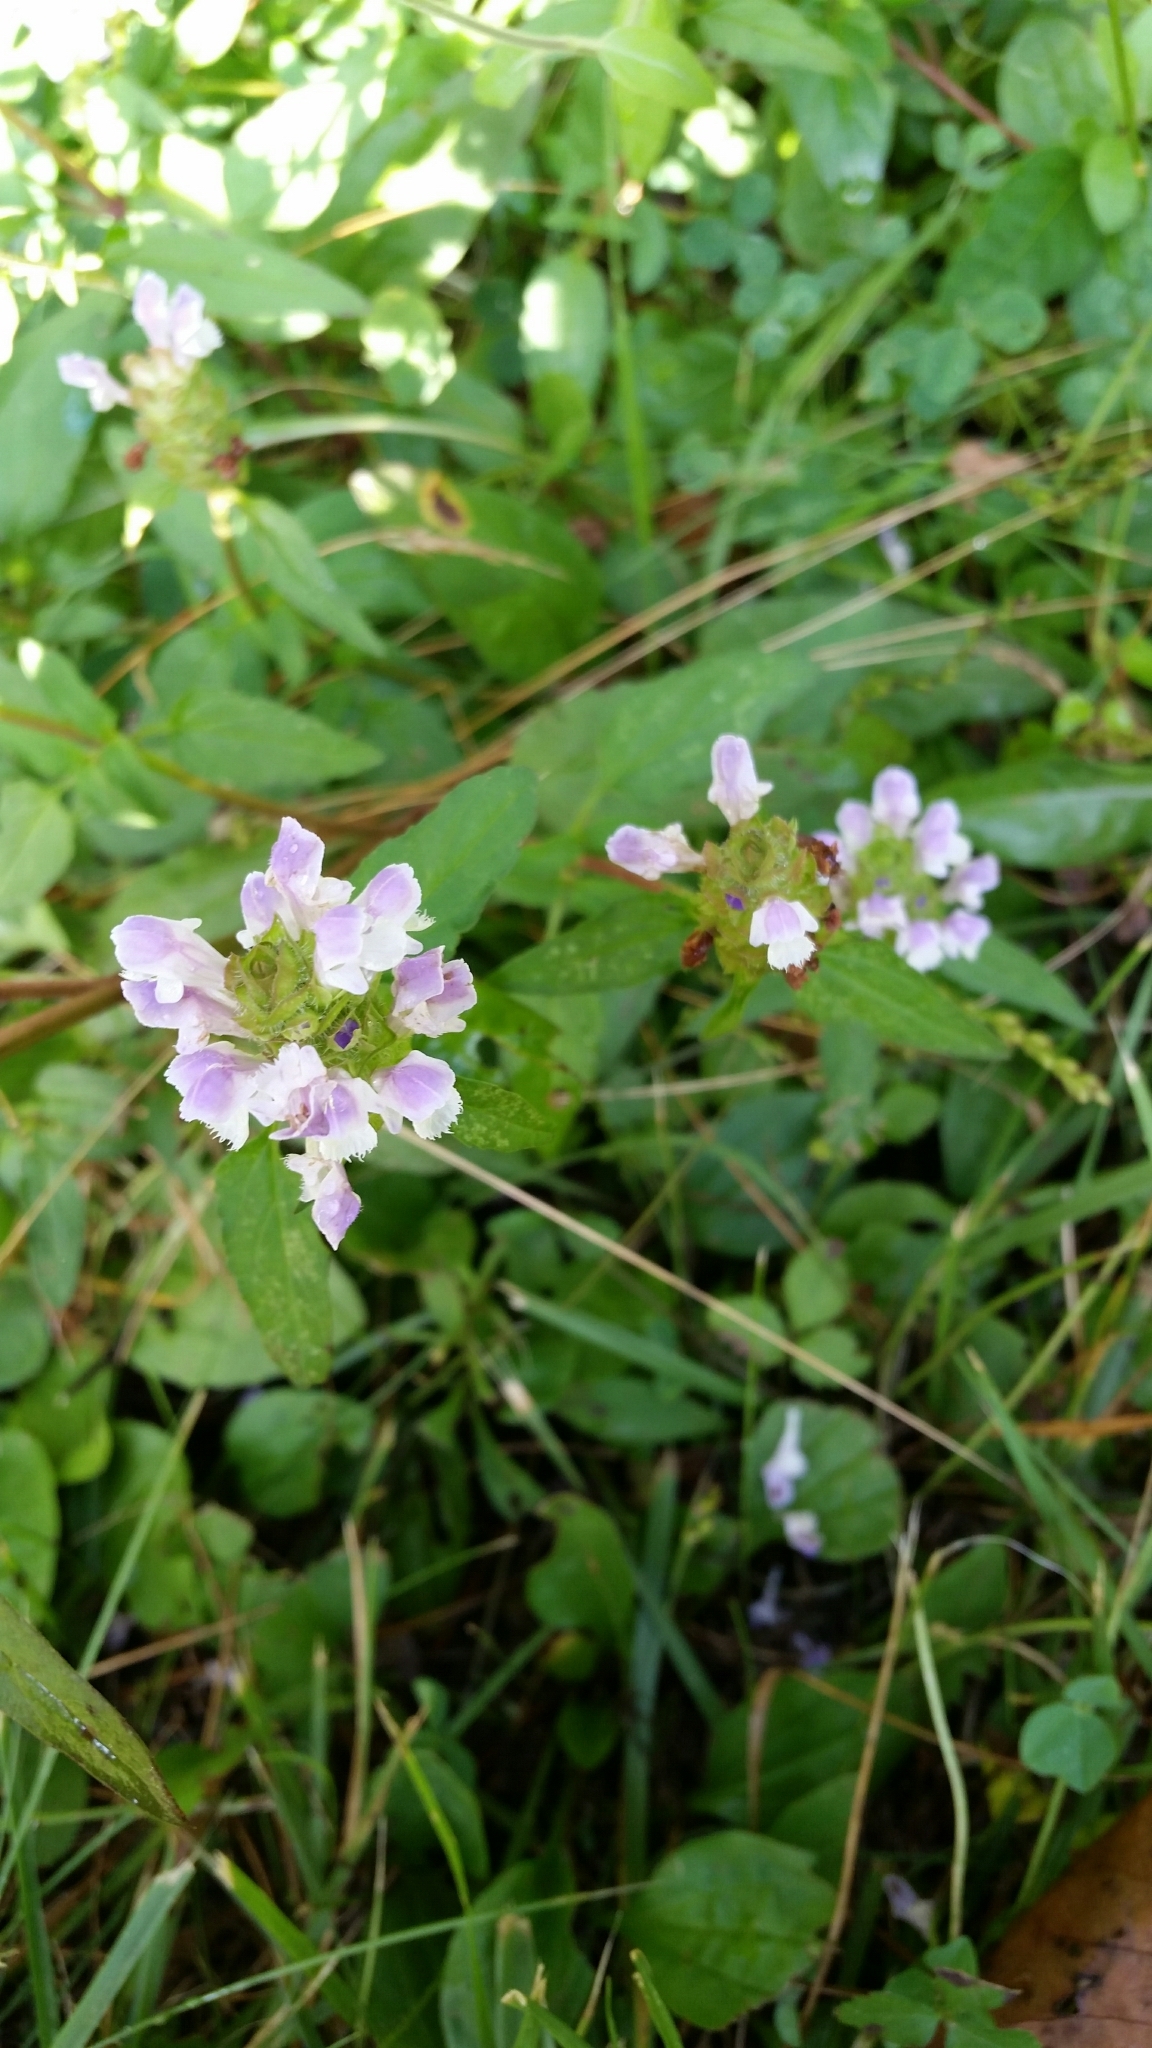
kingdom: Plantae
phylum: Tracheophyta
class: Magnoliopsida
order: Lamiales
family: Lamiaceae
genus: Prunella
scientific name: Prunella vulgaris
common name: Heal-all
